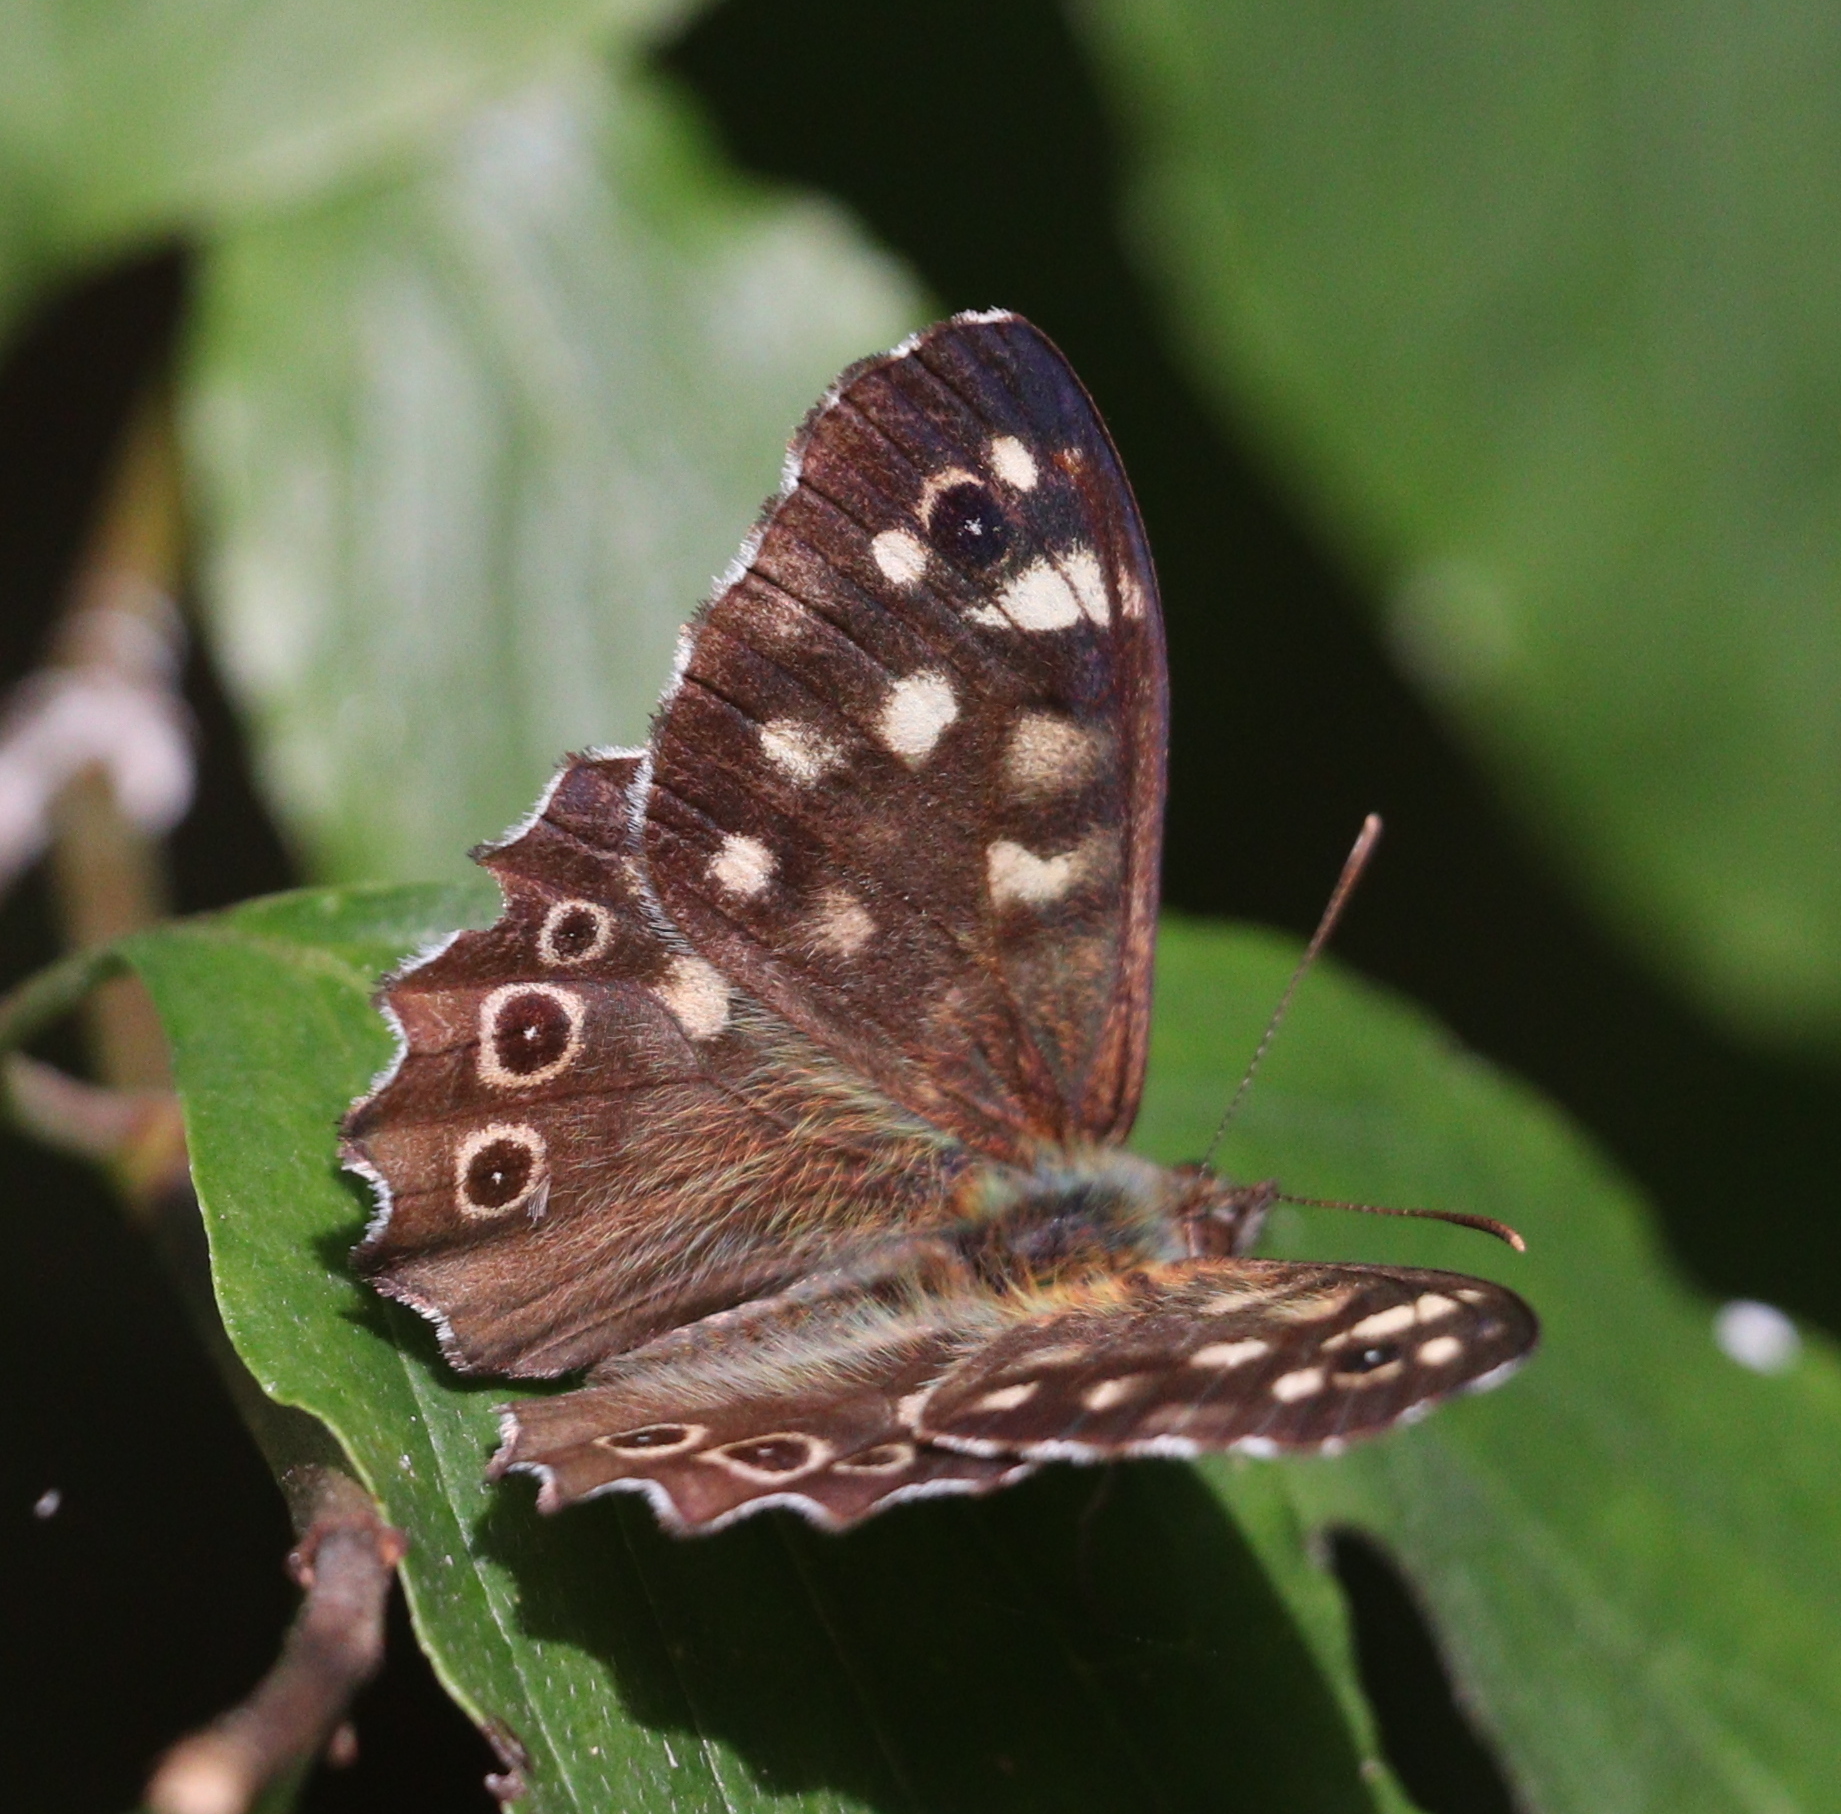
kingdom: Animalia
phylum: Arthropoda
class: Insecta
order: Lepidoptera
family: Nymphalidae
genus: Pararge
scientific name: Pararge aegeria
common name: Speckled wood
